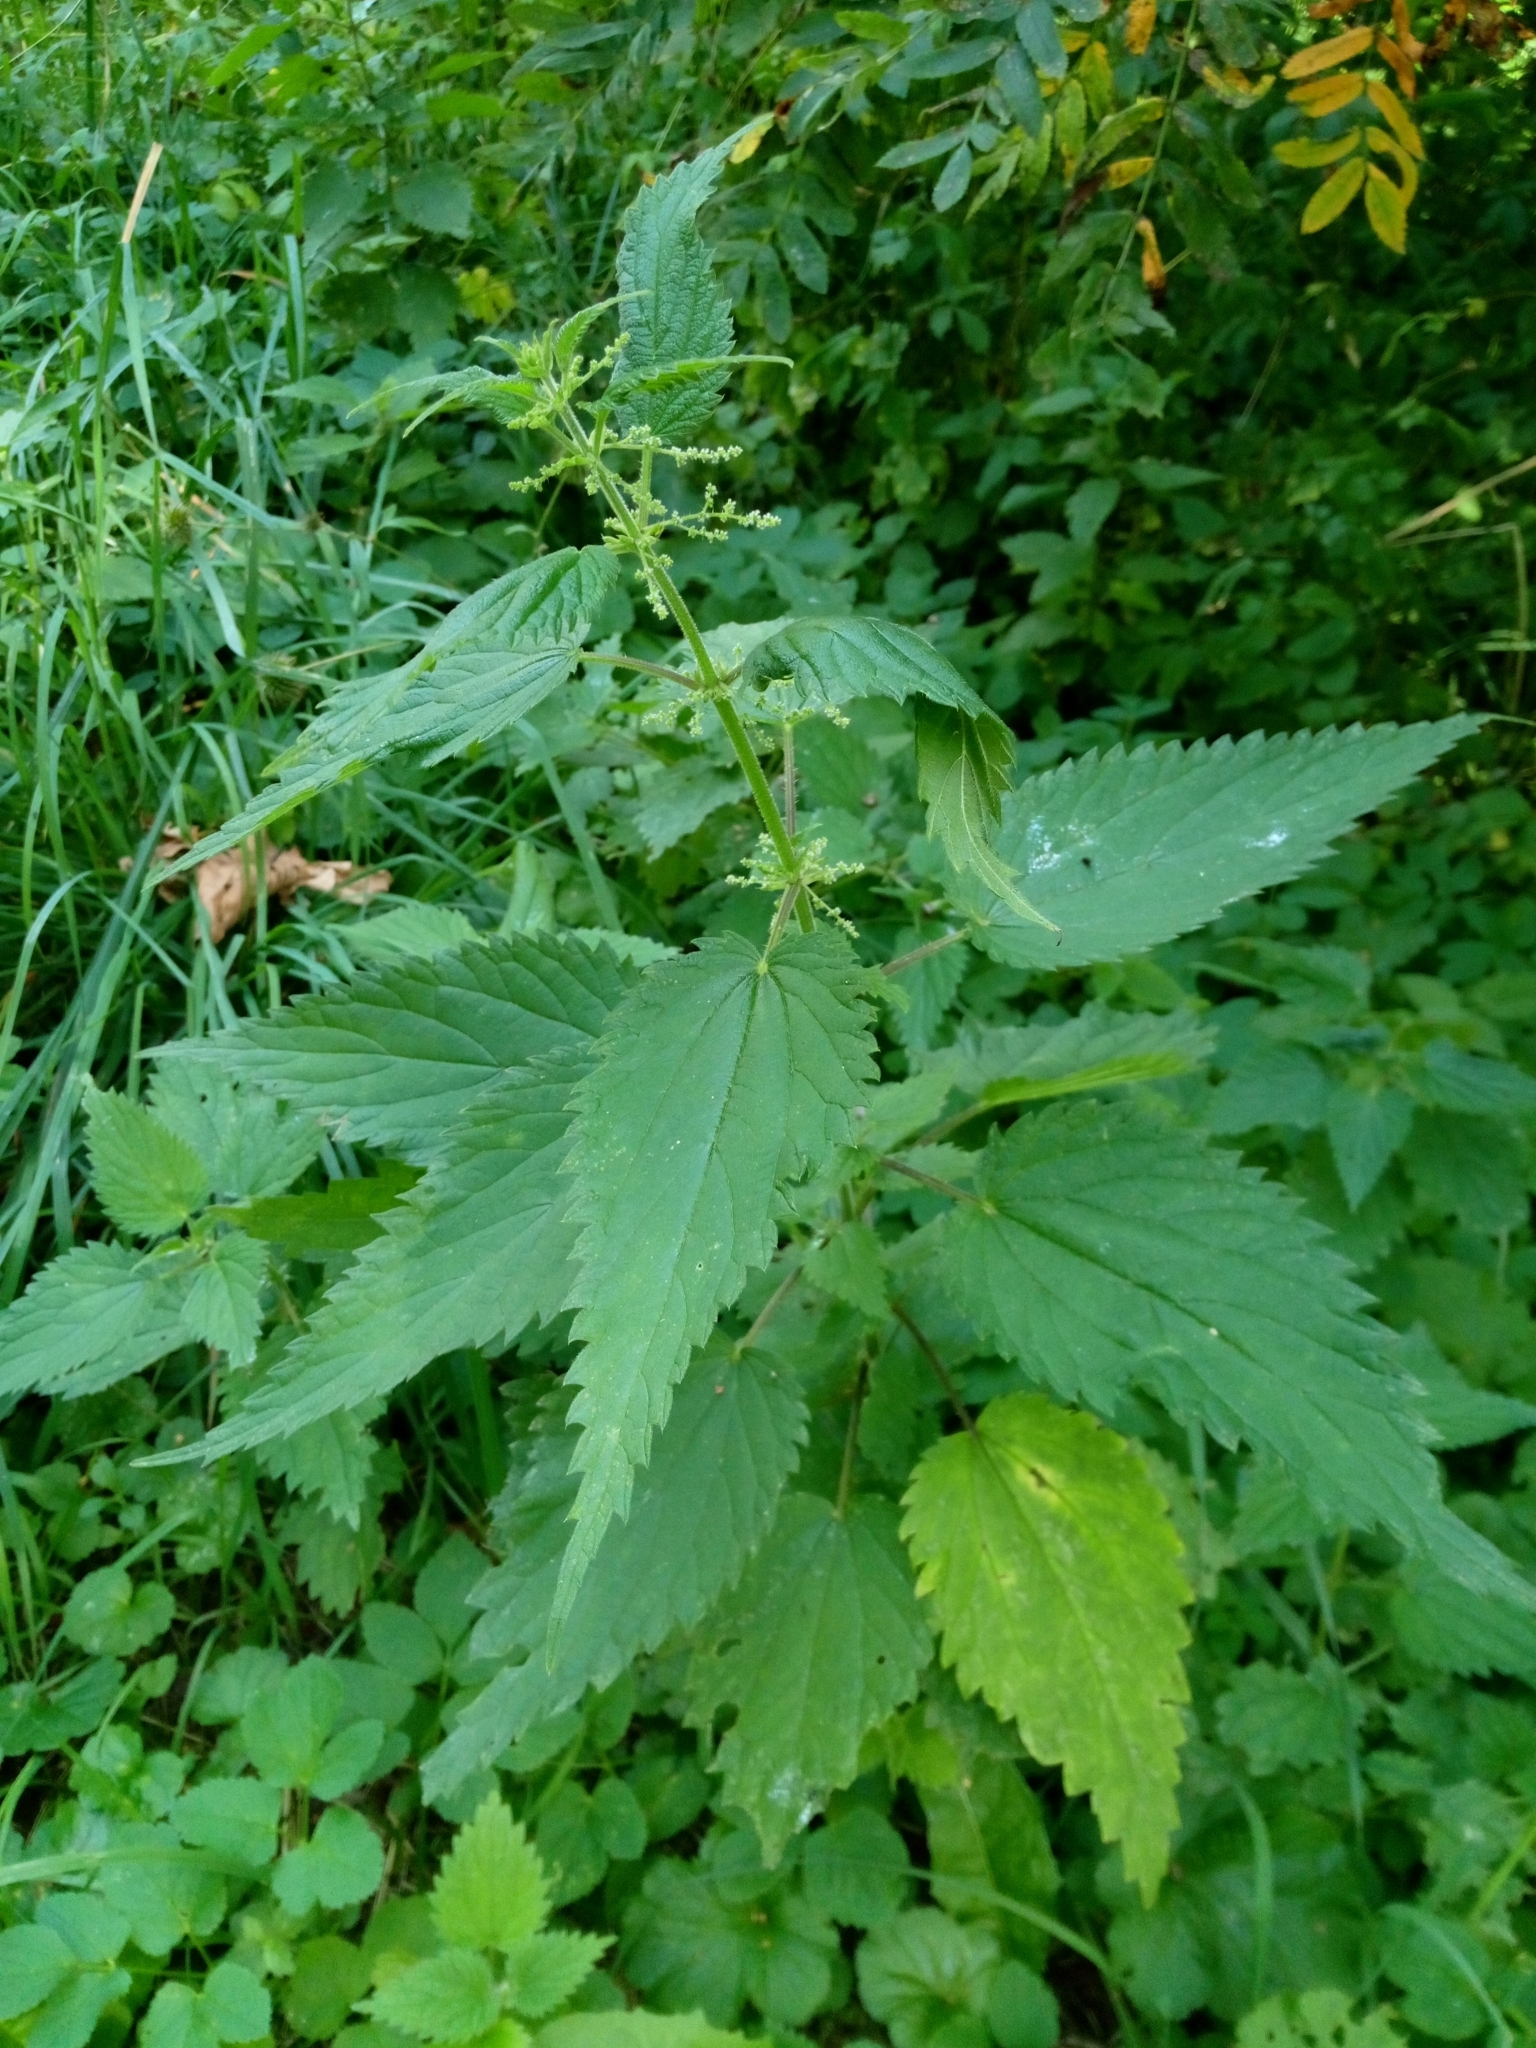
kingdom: Plantae
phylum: Tracheophyta
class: Magnoliopsida
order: Rosales
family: Urticaceae
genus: Urtica
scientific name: Urtica dioica
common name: Common nettle
